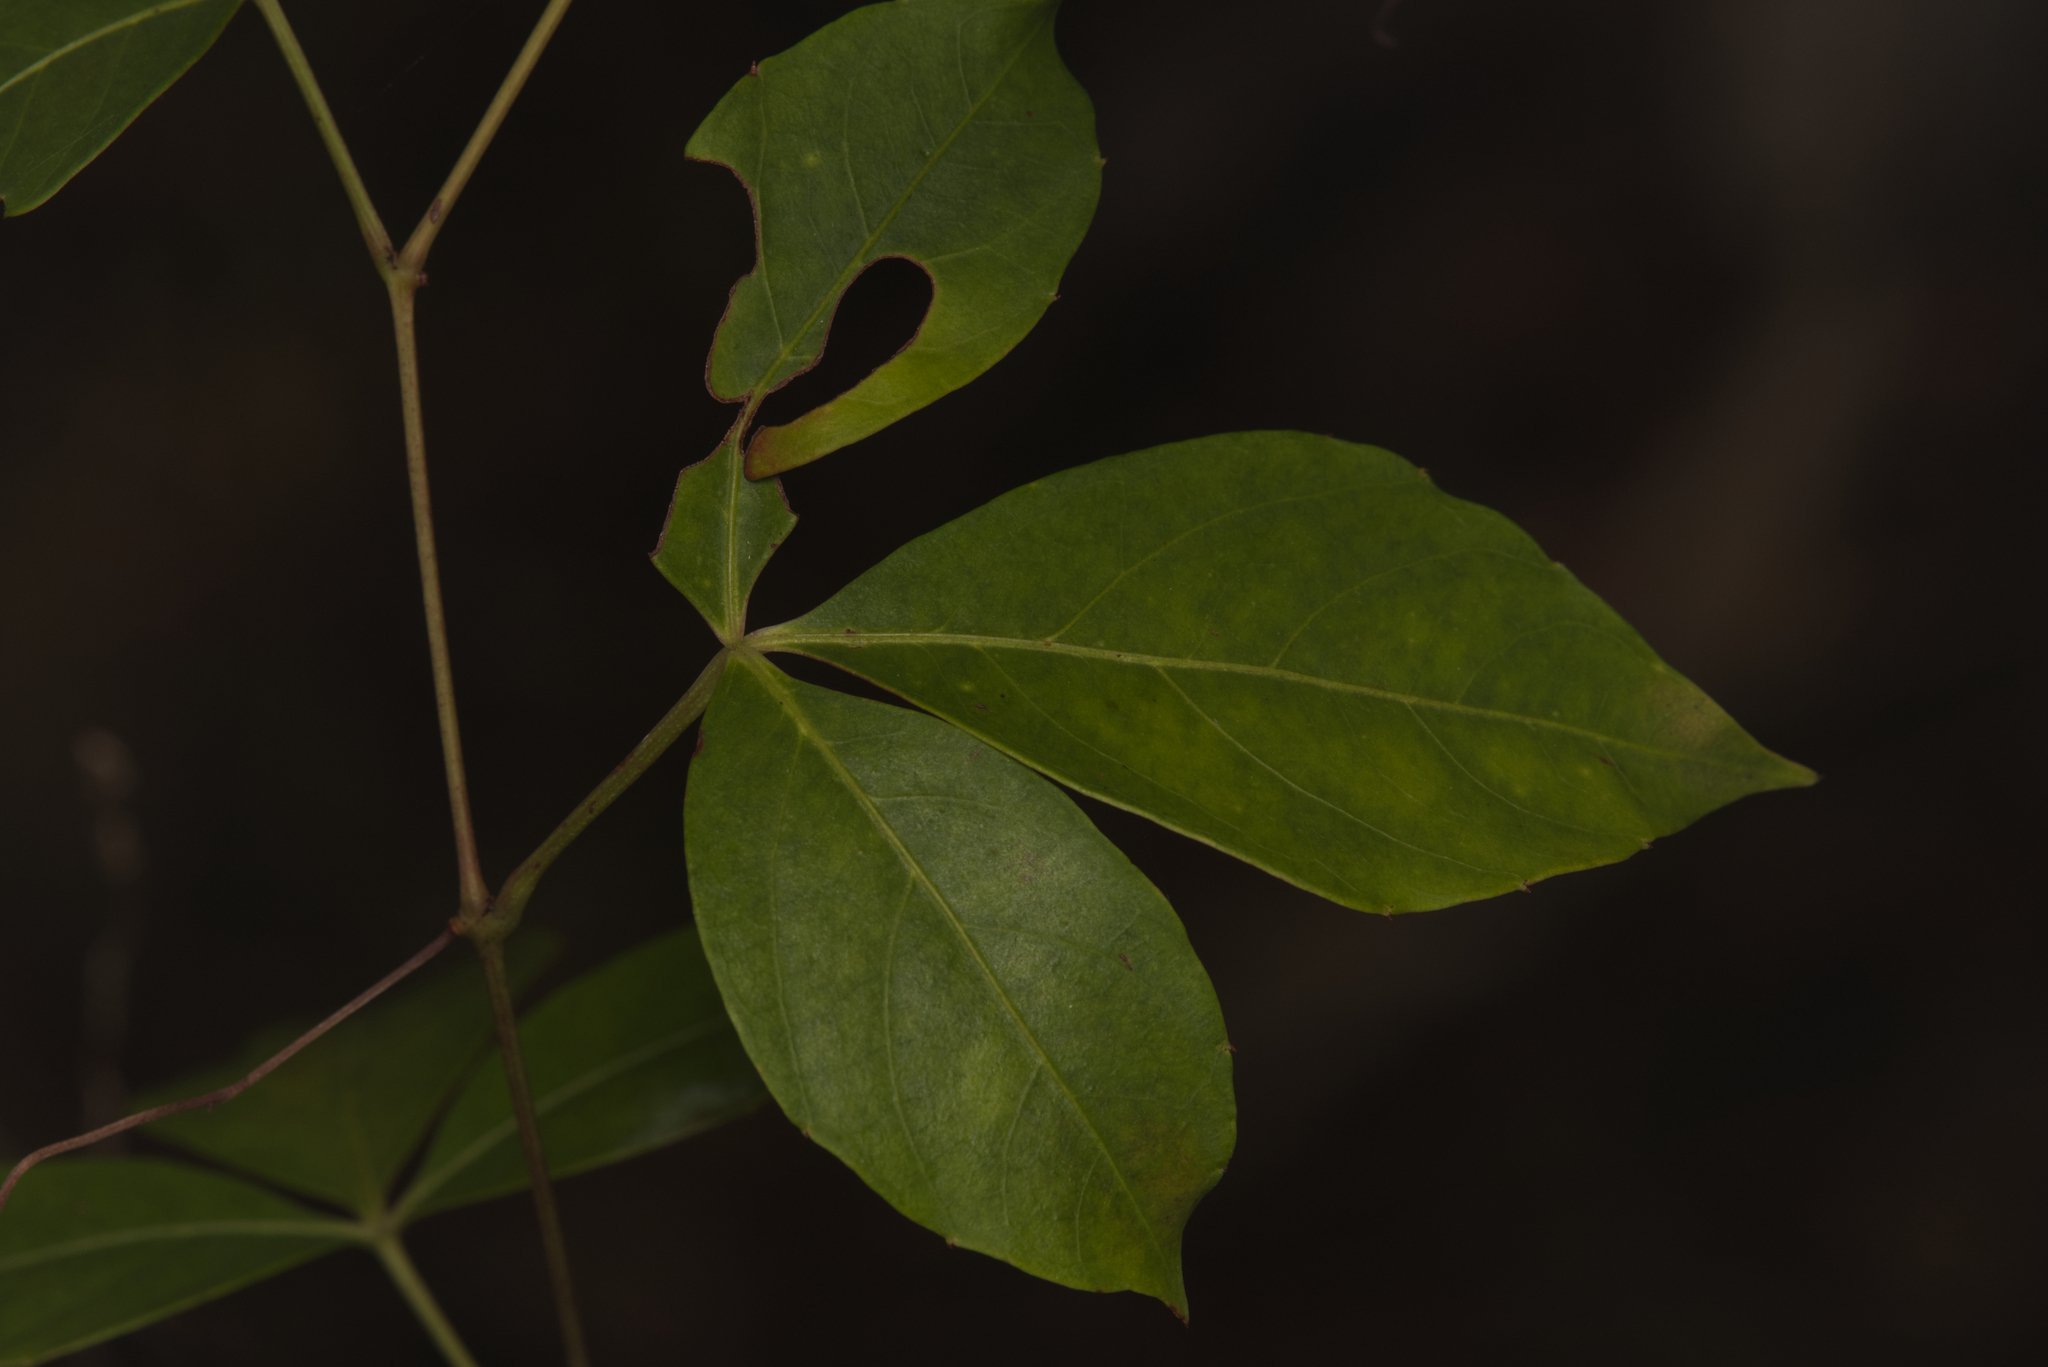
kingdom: Plantae
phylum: Tracheophyta
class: Magnoliopsida
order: Vitales
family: Vitaceae
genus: Clematicissus
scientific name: Clematicissus opaca
